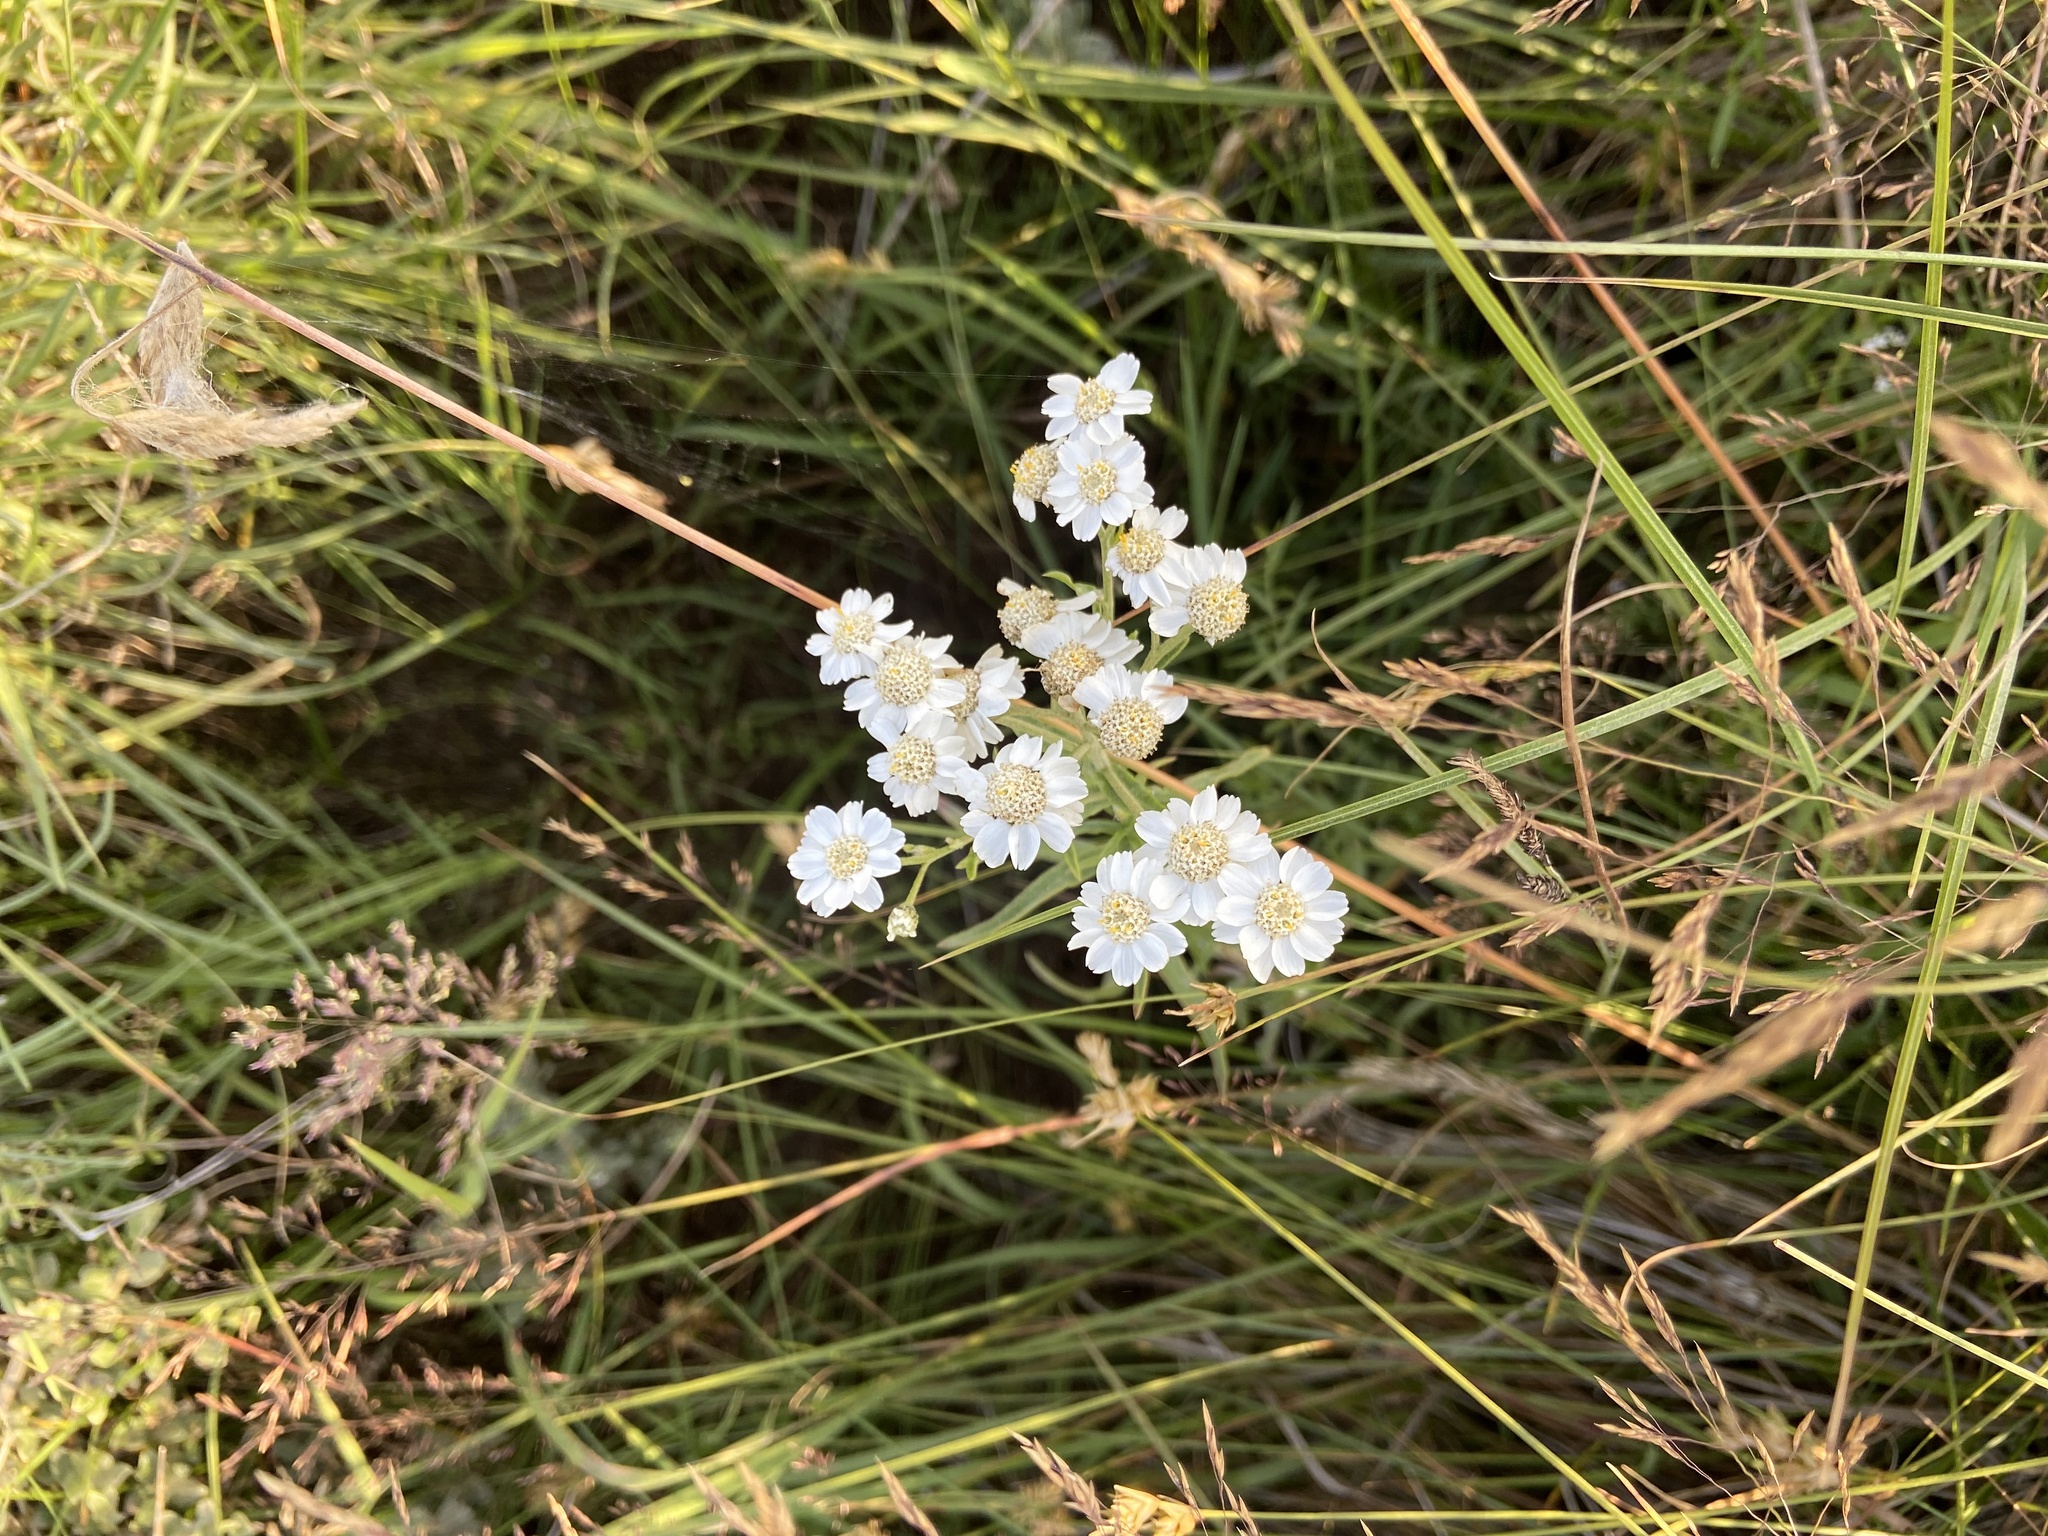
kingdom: Plantae
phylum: Tracheophyta
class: Magnoliopsida
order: Asterales
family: Asteraceae
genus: Achillea
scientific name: Achillea ptarmica
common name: Sneezeweed
